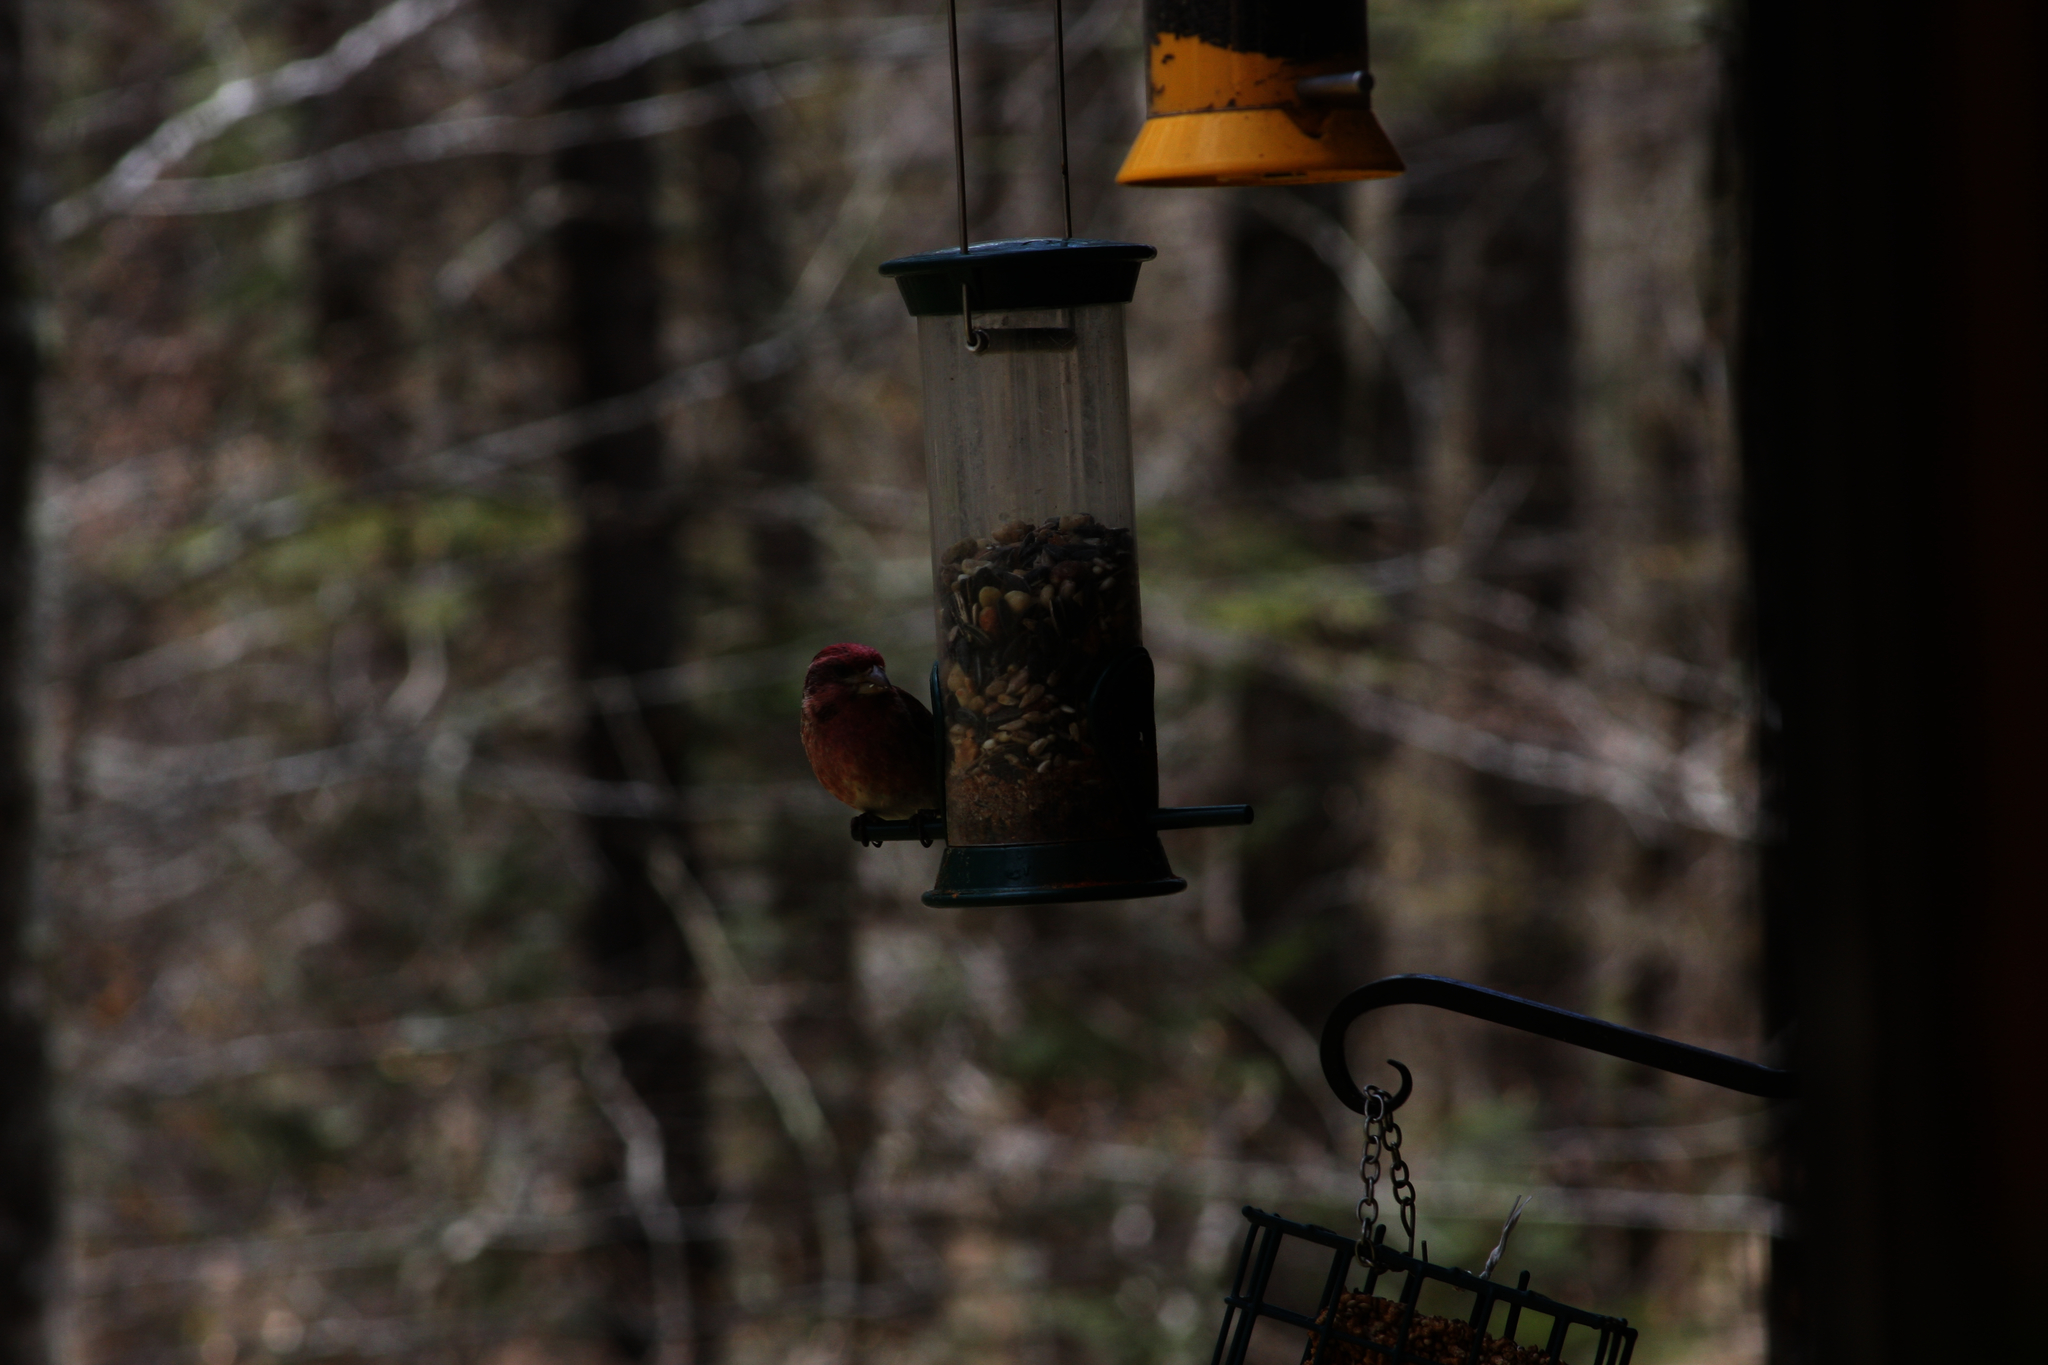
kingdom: Animalia
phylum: Chordata
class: Aves
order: Passeriformes
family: Fringillidae
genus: Haemorhous
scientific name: Haemorhous purpureus
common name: Purple finch
